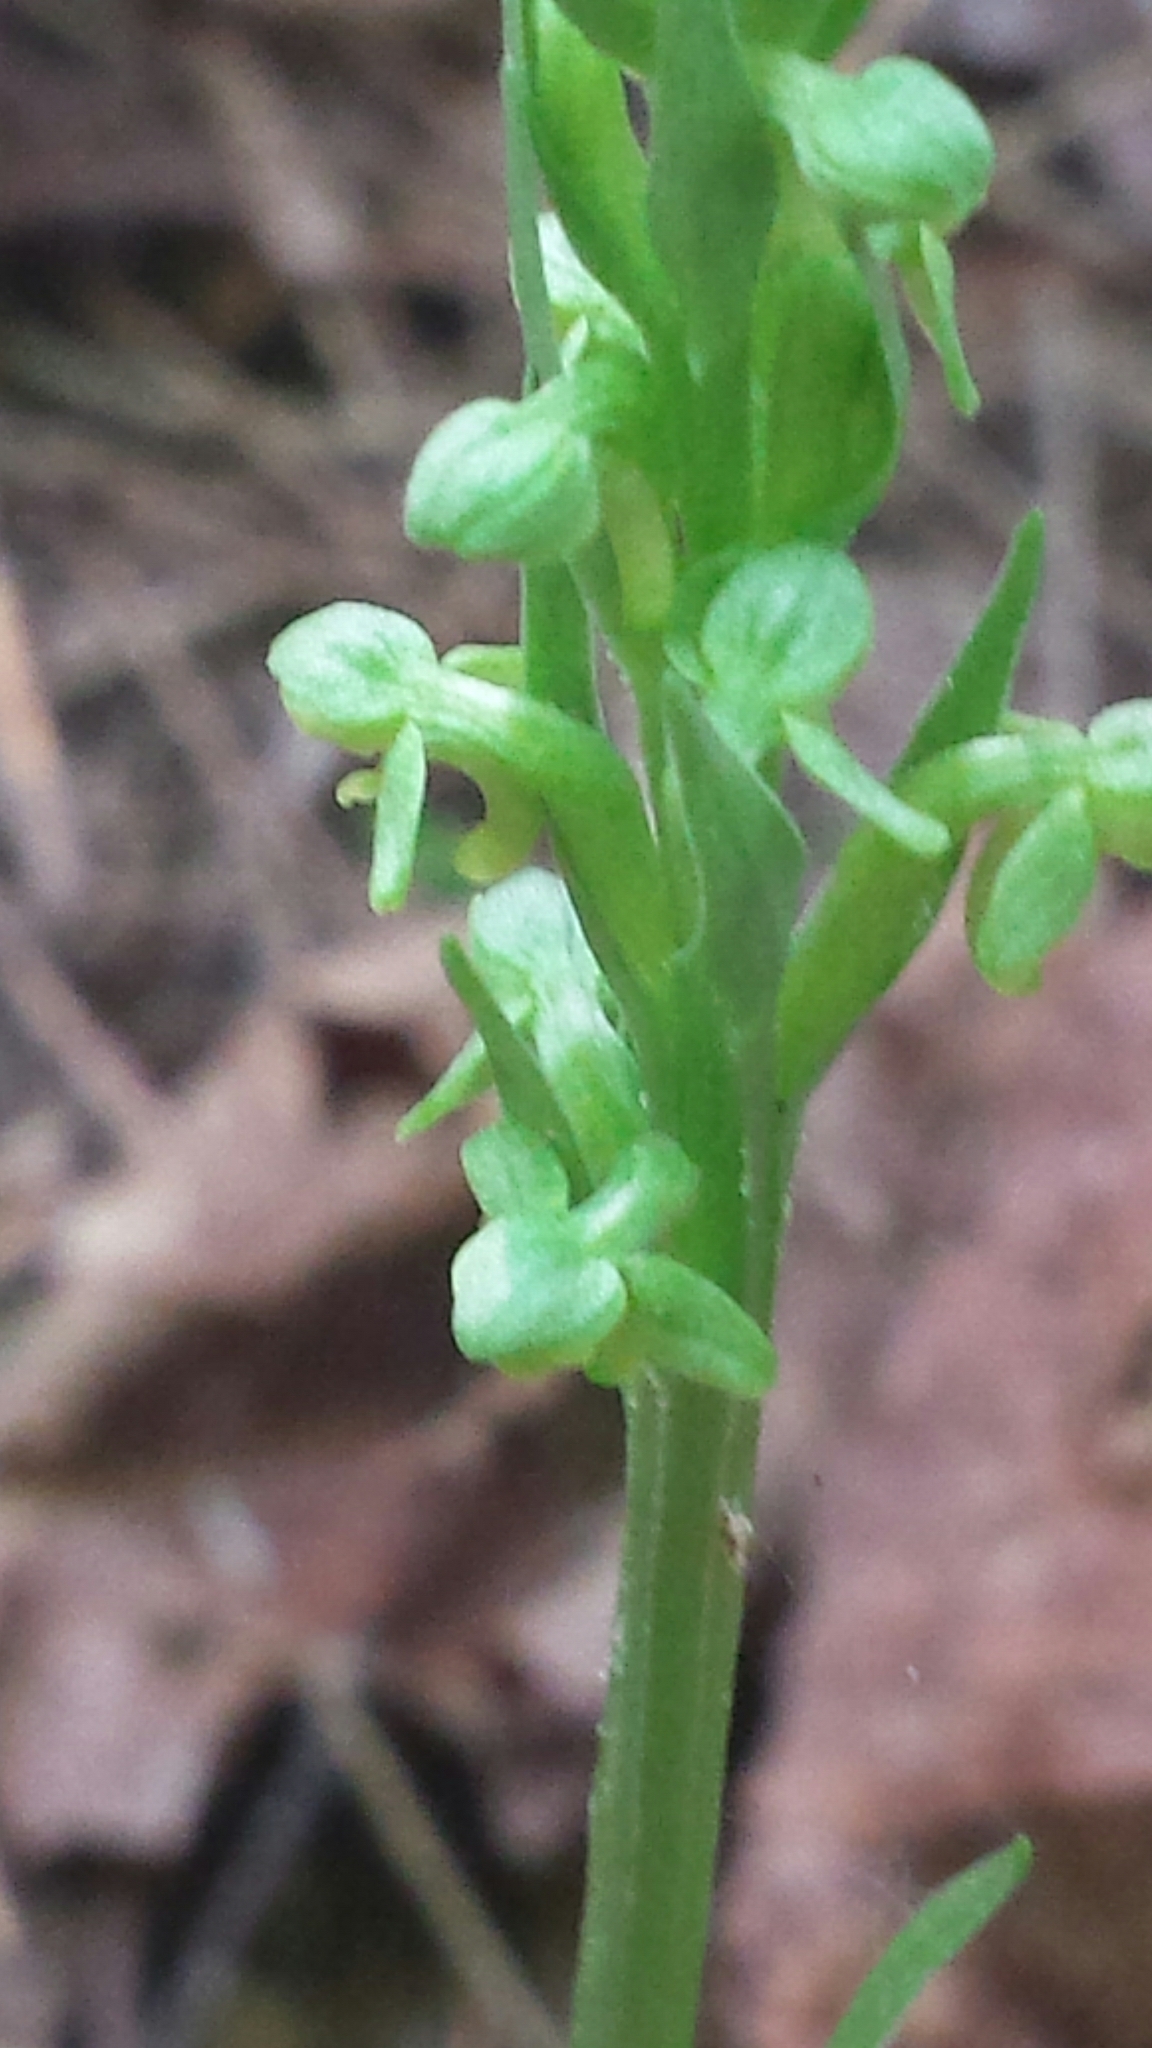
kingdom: Plantae
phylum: Tracheophyta
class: Liliopsida
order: Asparagales
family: Orchidaceae
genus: Platanthera
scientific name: Platanthera aquilonis
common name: Northern green orchid
